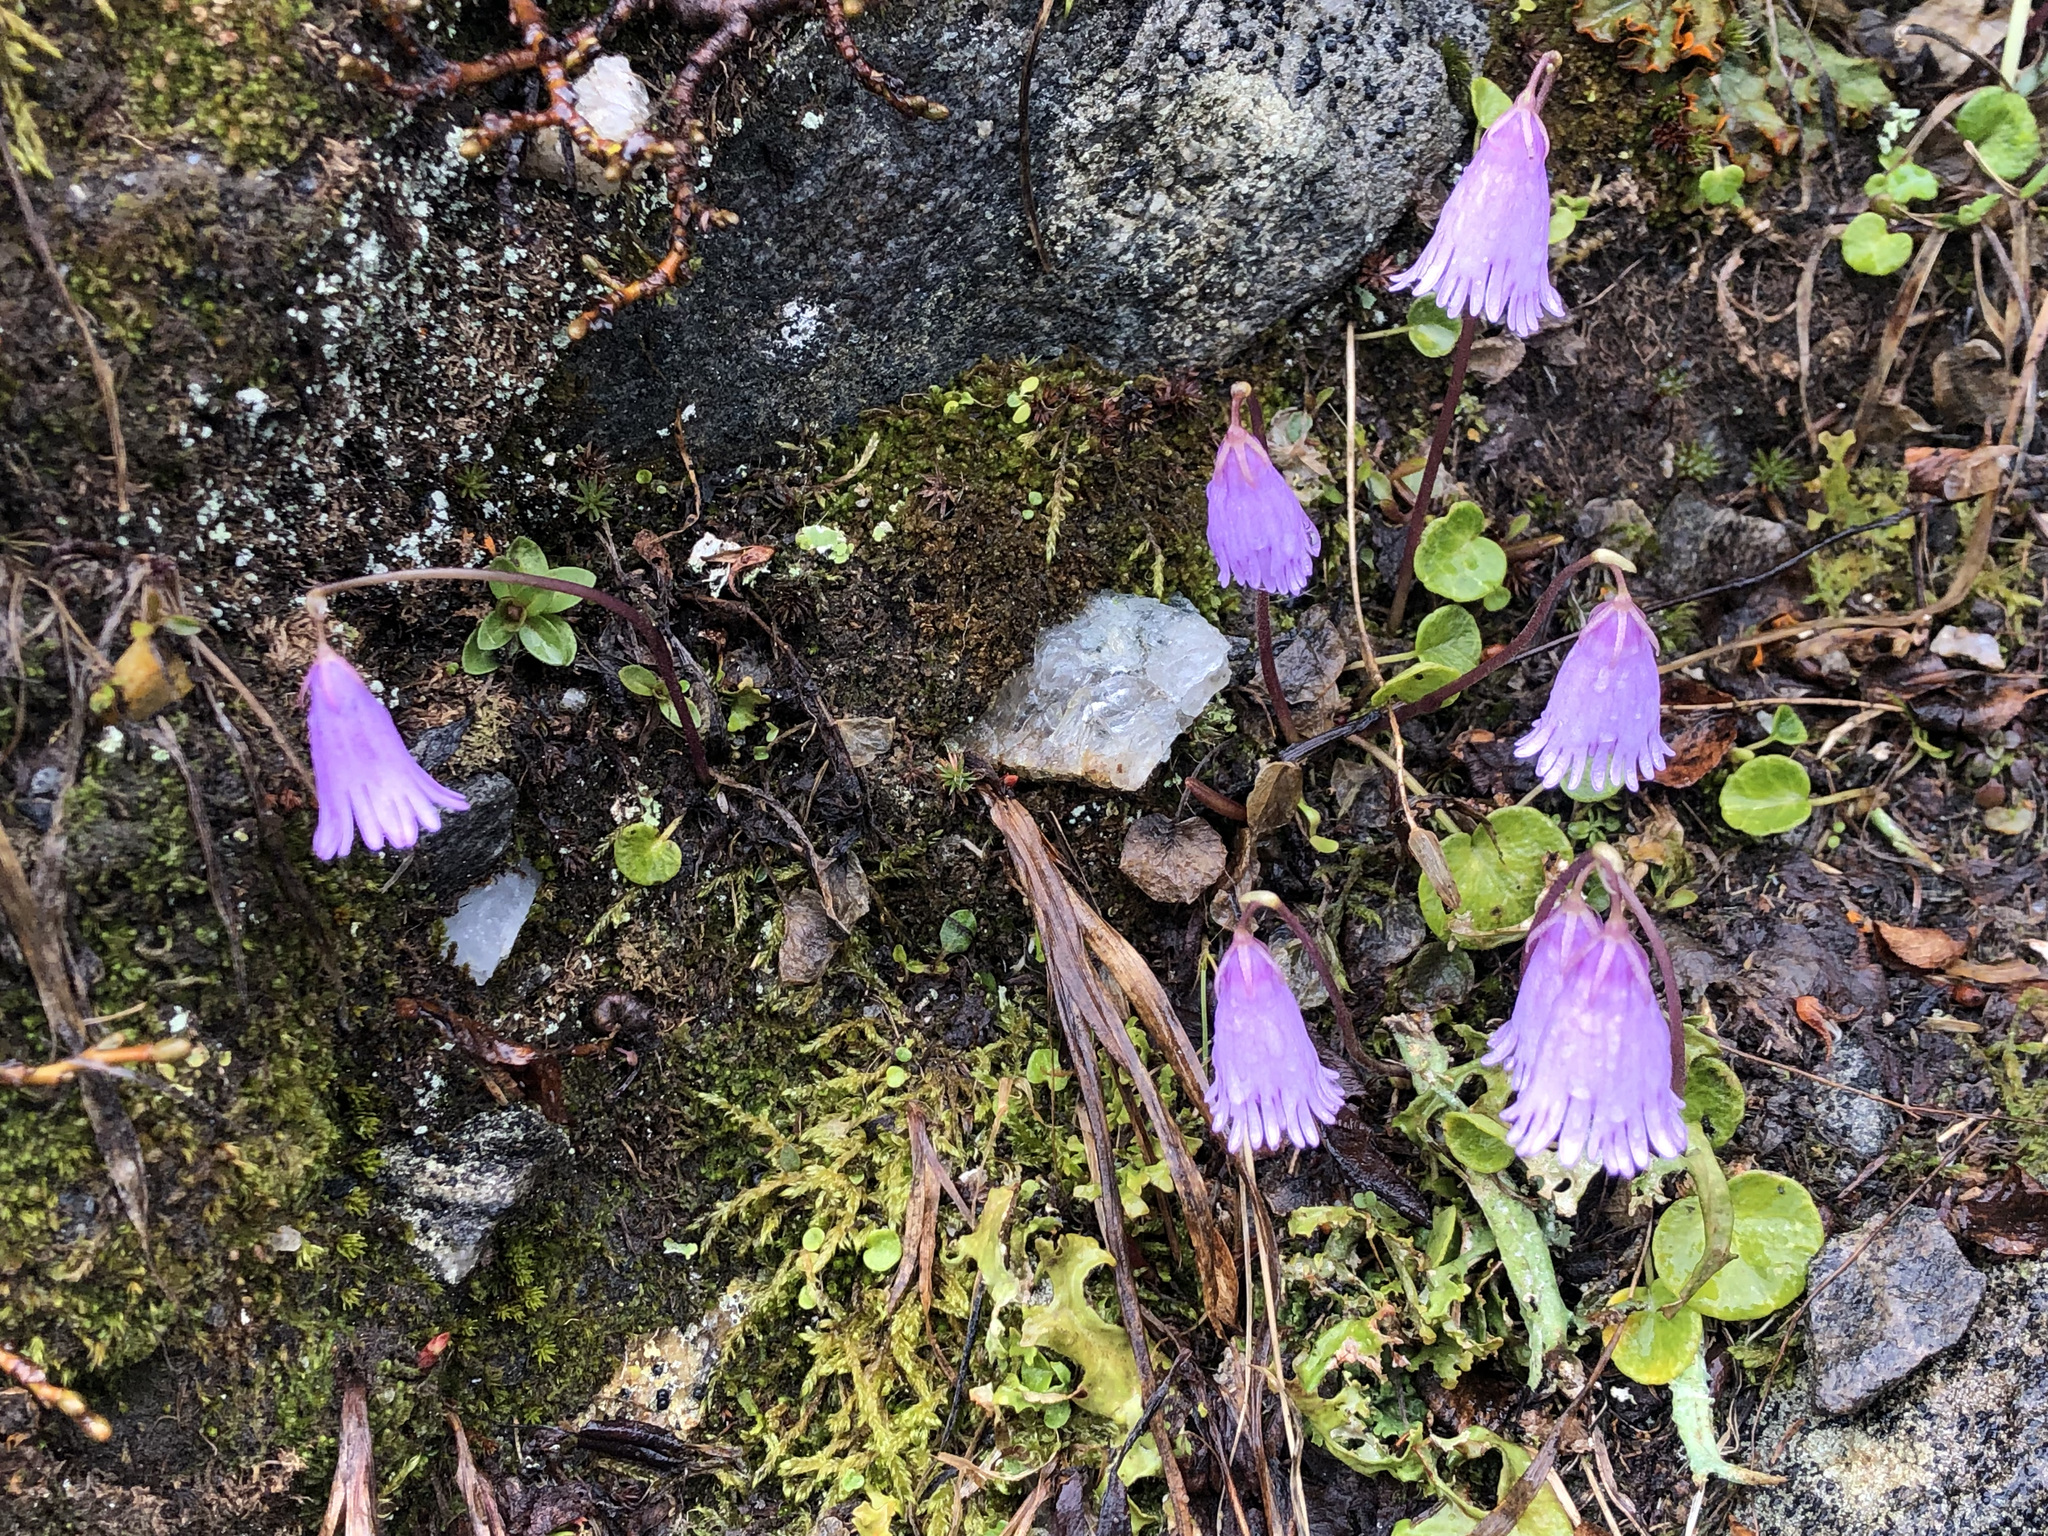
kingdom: Plantae
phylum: Tracheophyta
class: Magnoliopsida
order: Ericales
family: Primulaceae
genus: Soldanella
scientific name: Soldanella alpicola
